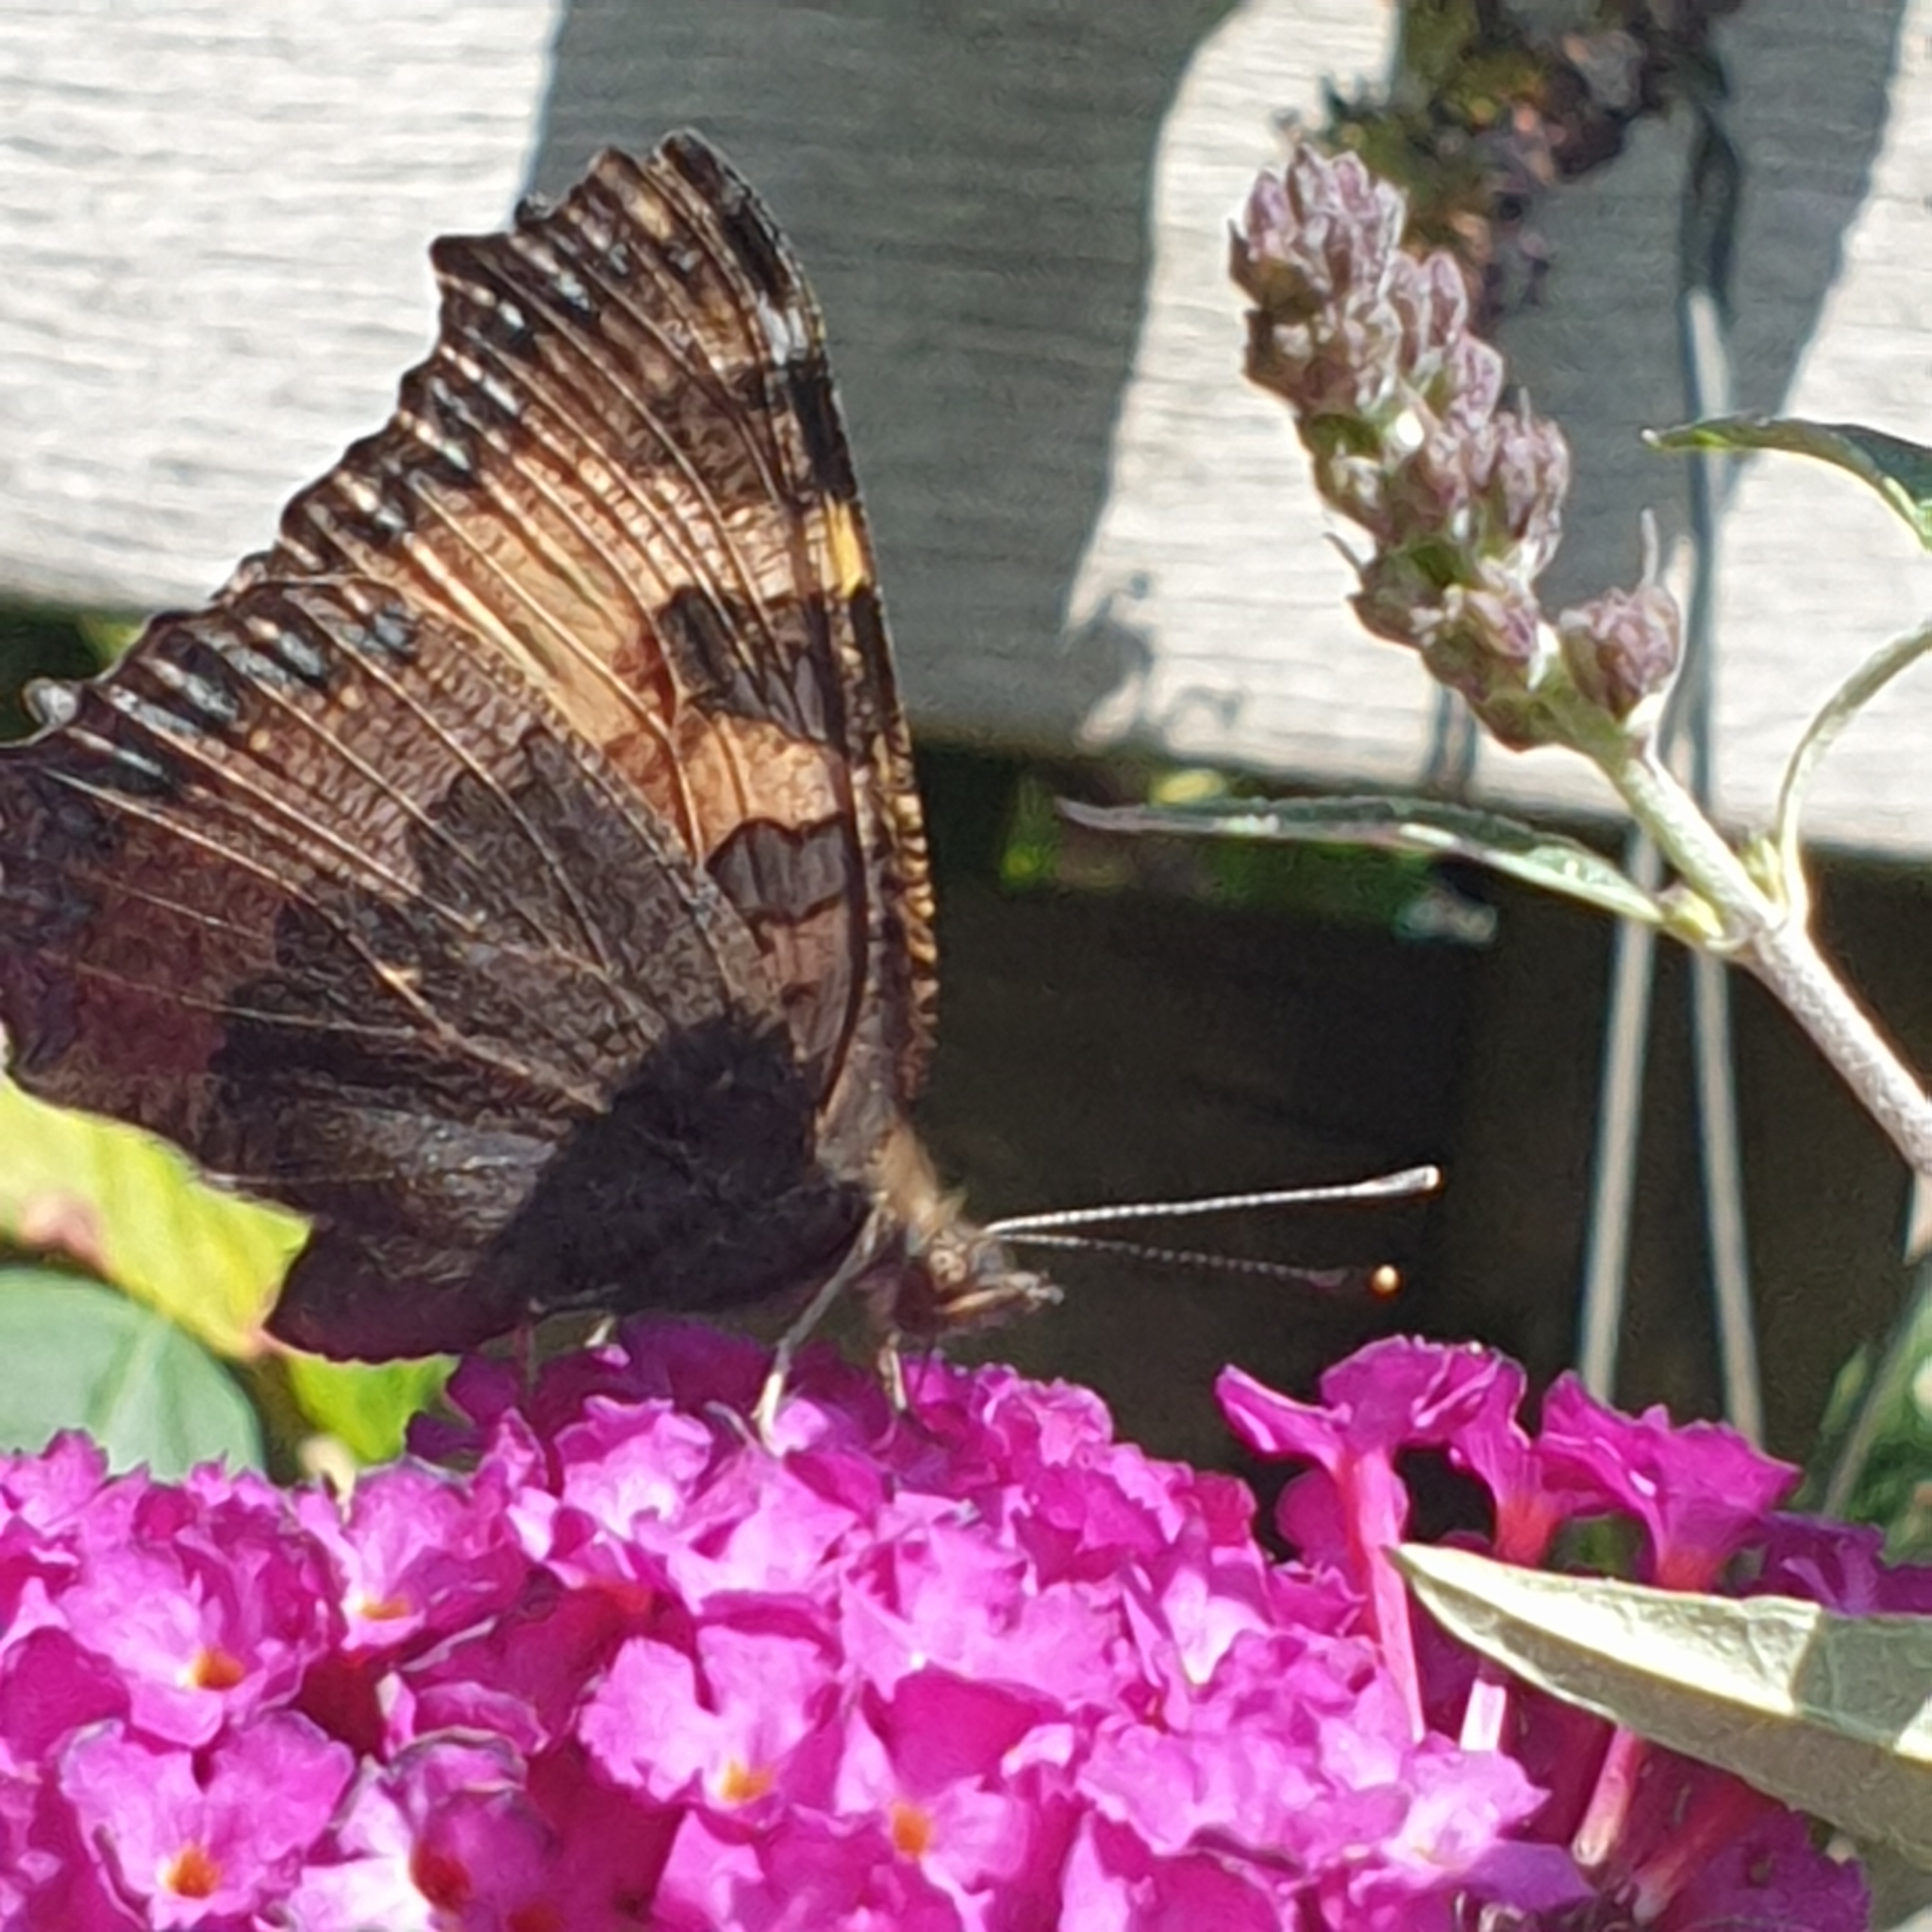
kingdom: Animalia
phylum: Arthropoda
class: Insecta
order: Lepidoptera
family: Nymphalidae
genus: Aglais
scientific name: Aglais urticae
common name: Small tortoiseshell
